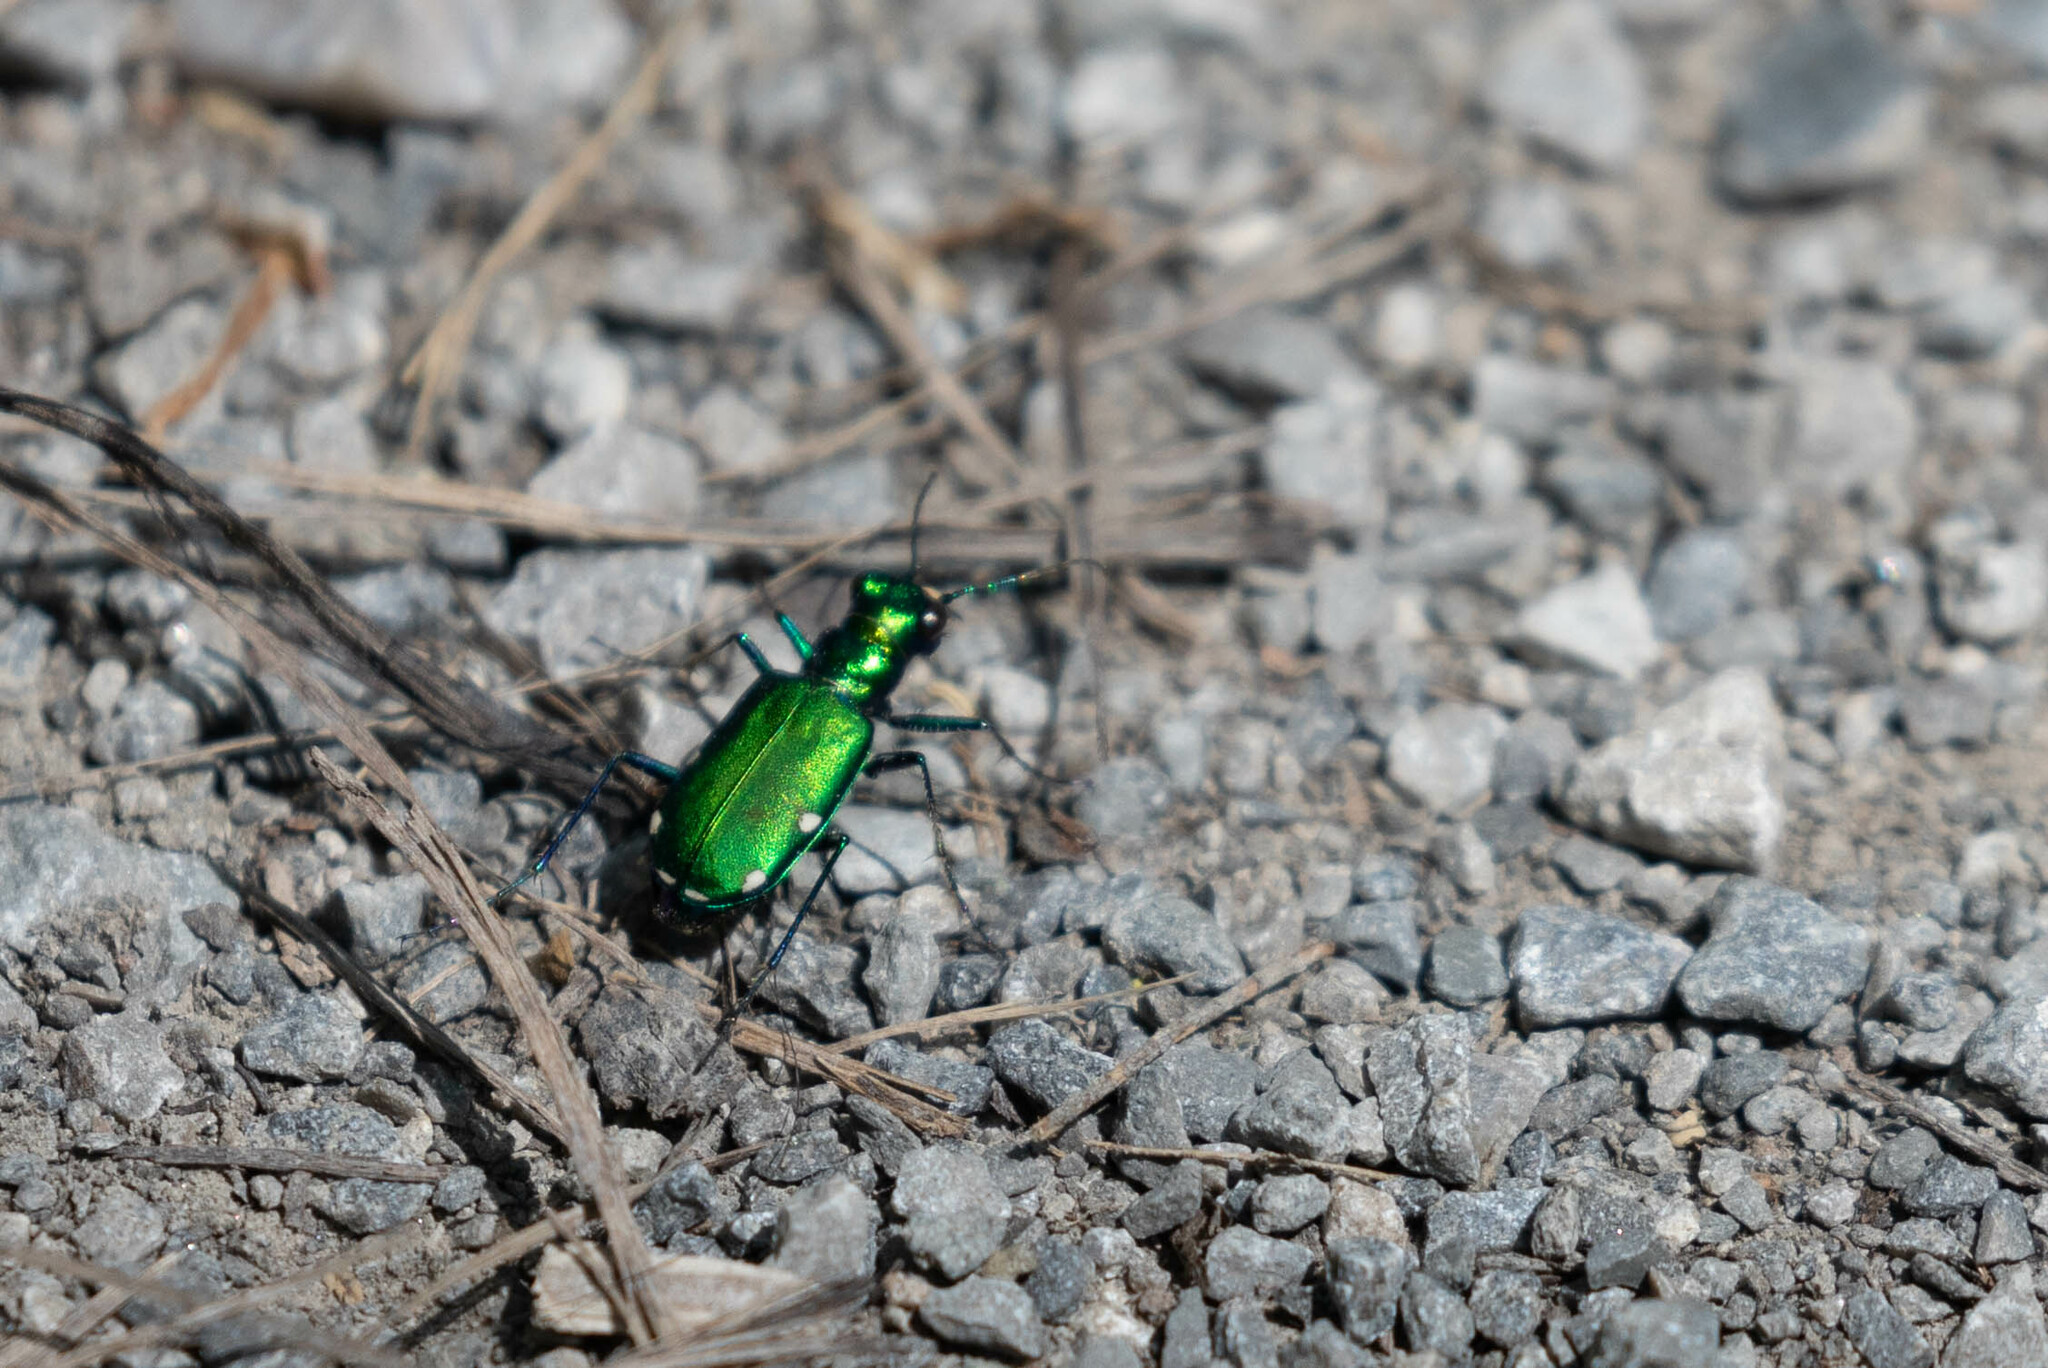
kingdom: Animalia
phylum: Arthropoda
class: Insecta
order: Coleoptera
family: Carabidae
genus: Cicindela
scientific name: Cicindela sexguttata
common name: Six-spotted tiger beetle
